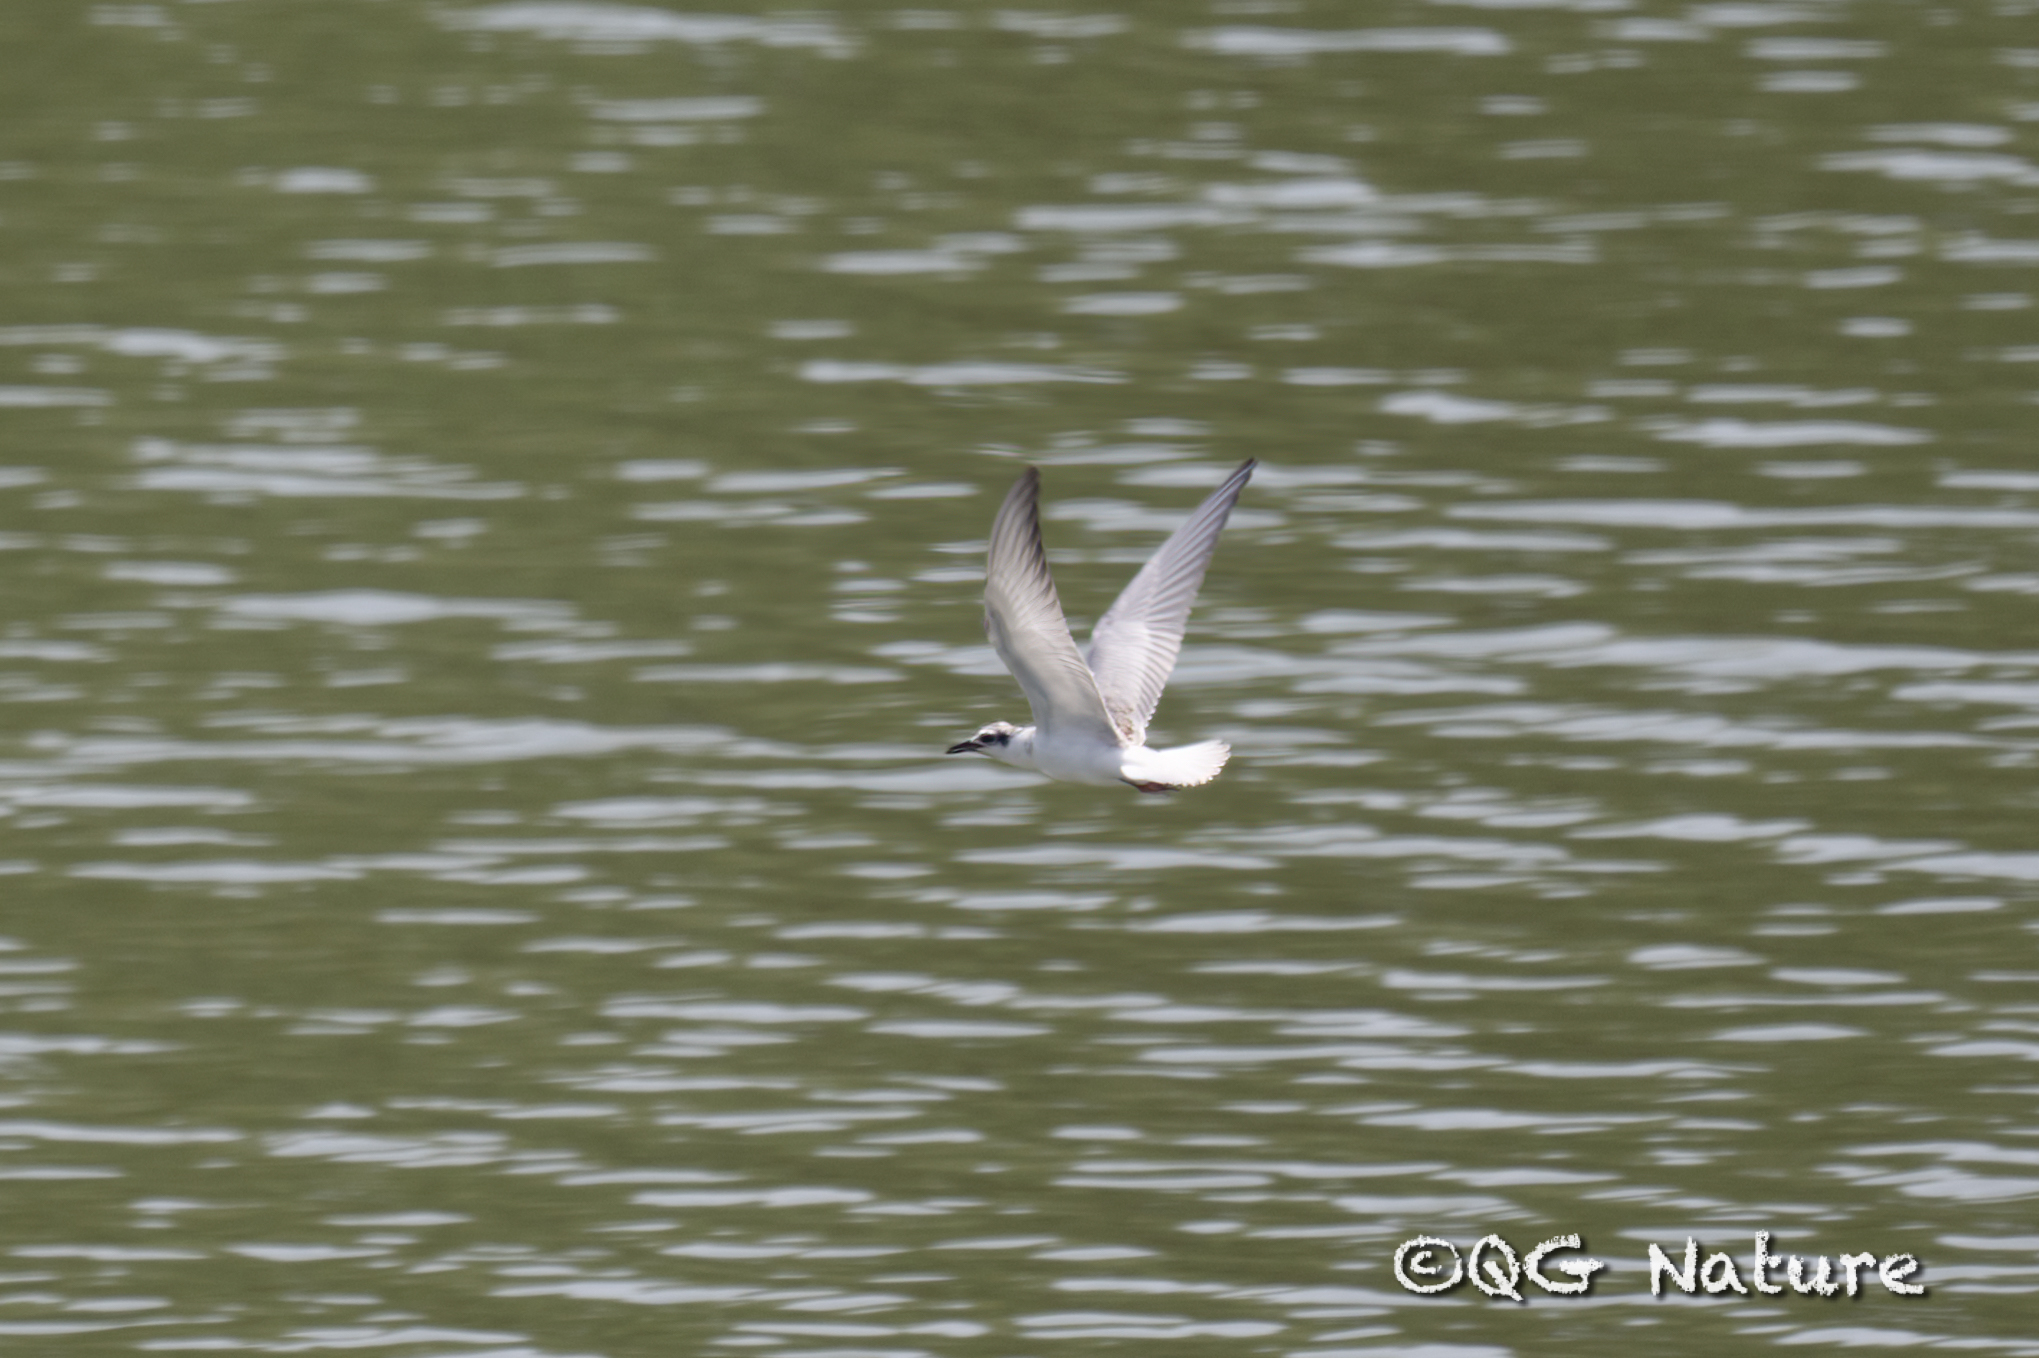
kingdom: Animalia
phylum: Chordata
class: Aves
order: Charadriiformes
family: Laridae
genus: Chlidonias
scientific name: Chlidonias leucopterus
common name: White-winged tern
